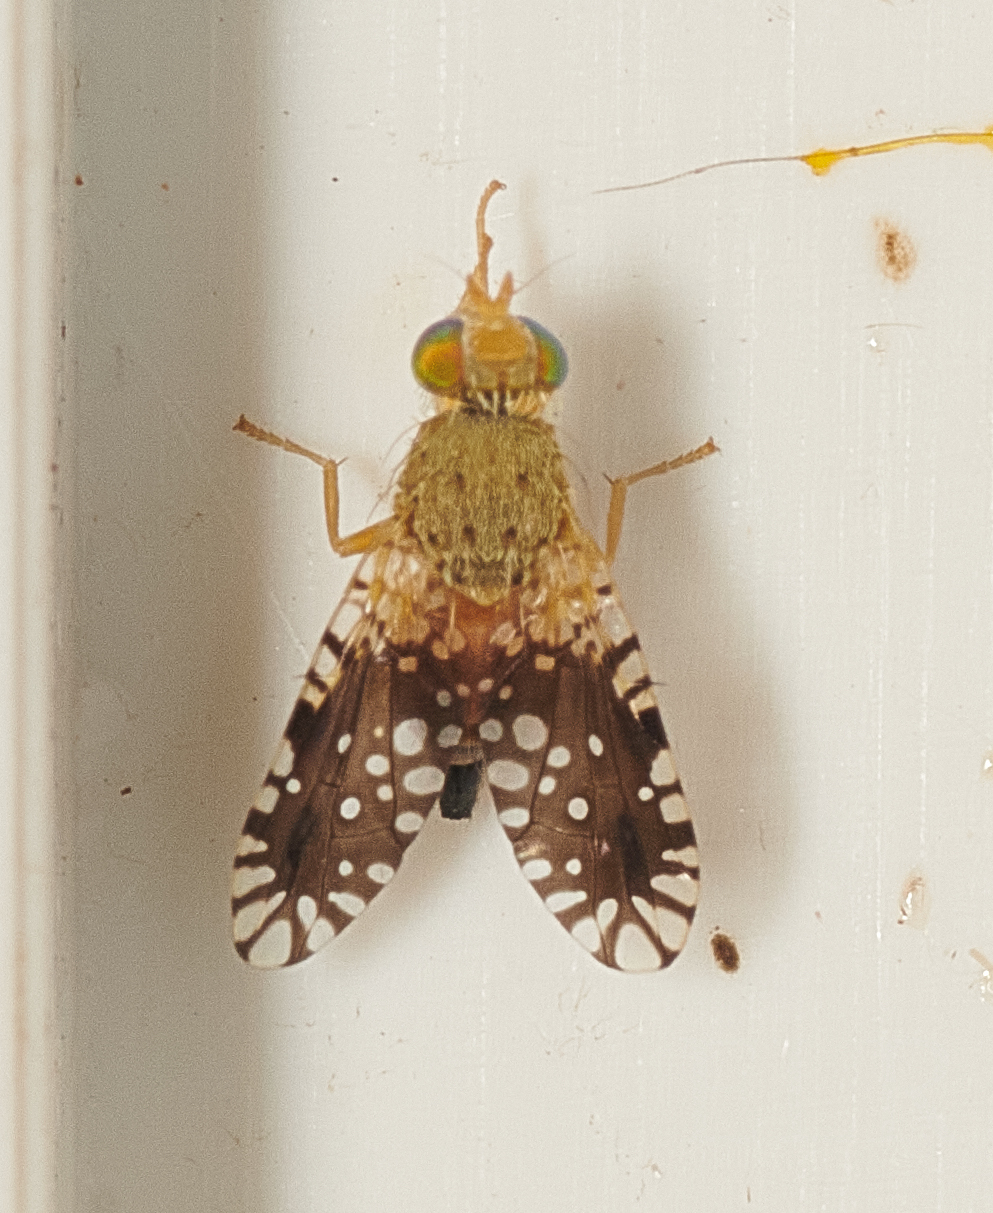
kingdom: Animalia
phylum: Arthropoda
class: Insecta
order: Diptera
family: Tephritidae
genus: Euaresta
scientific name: Euaresta bella
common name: Common ragweed fruit fly
